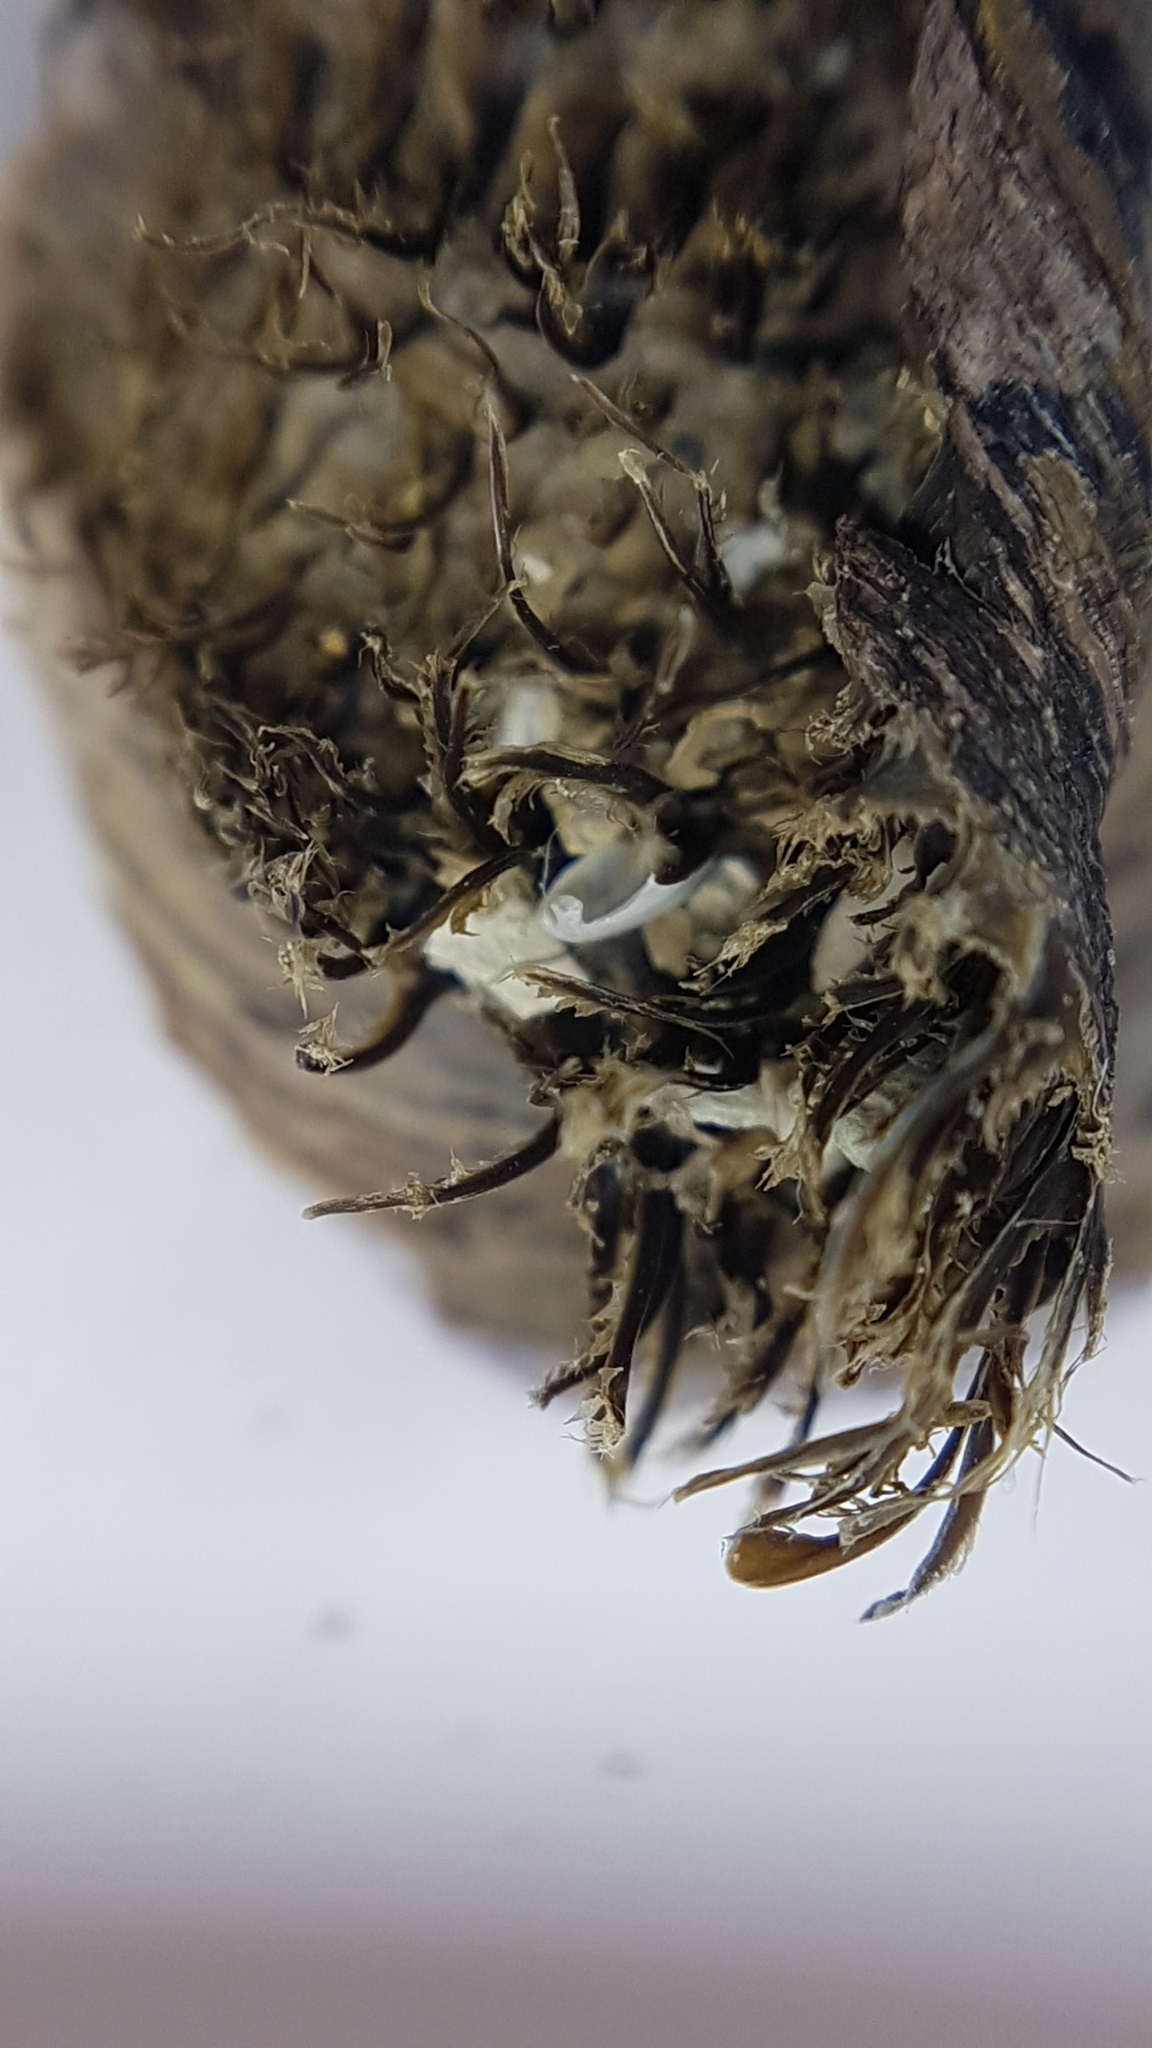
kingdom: Animalia
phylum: Mollusca
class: Bivalvia
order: Mytilida
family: Mytilidae
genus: Modiolus
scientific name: Modiolus barbatus
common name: Bearded mussel
